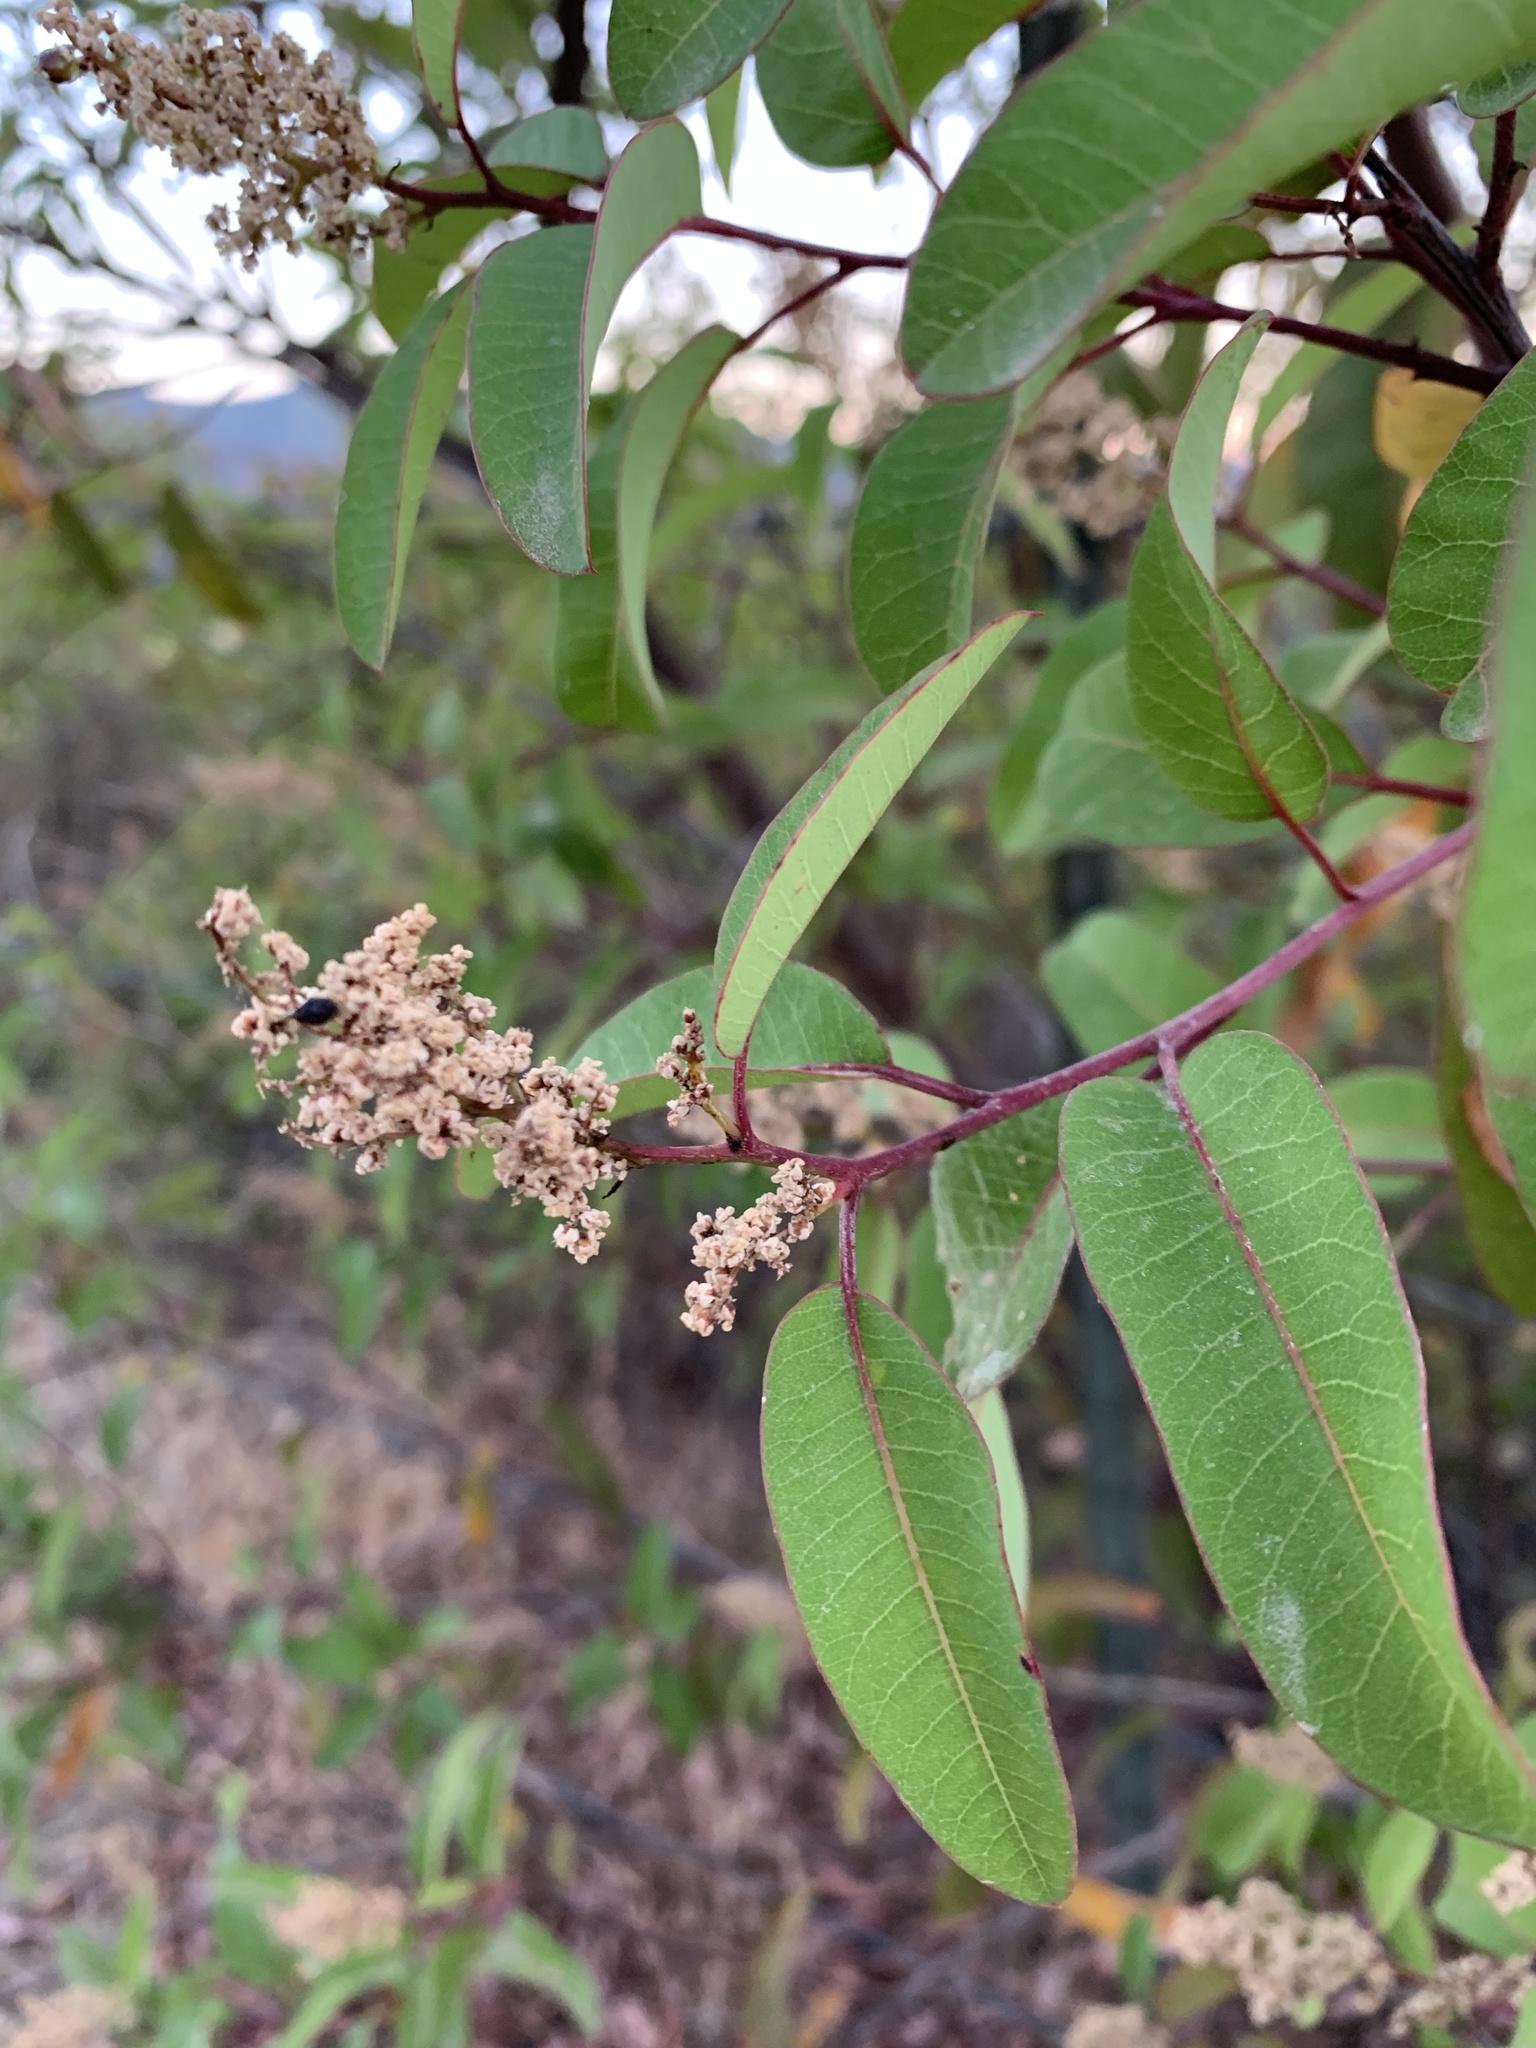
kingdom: Plantae
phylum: Tracheophyta
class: Magnoliopsida
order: Sapindales
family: Anacardiaceae
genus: Malosma
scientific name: Malosma laurina
